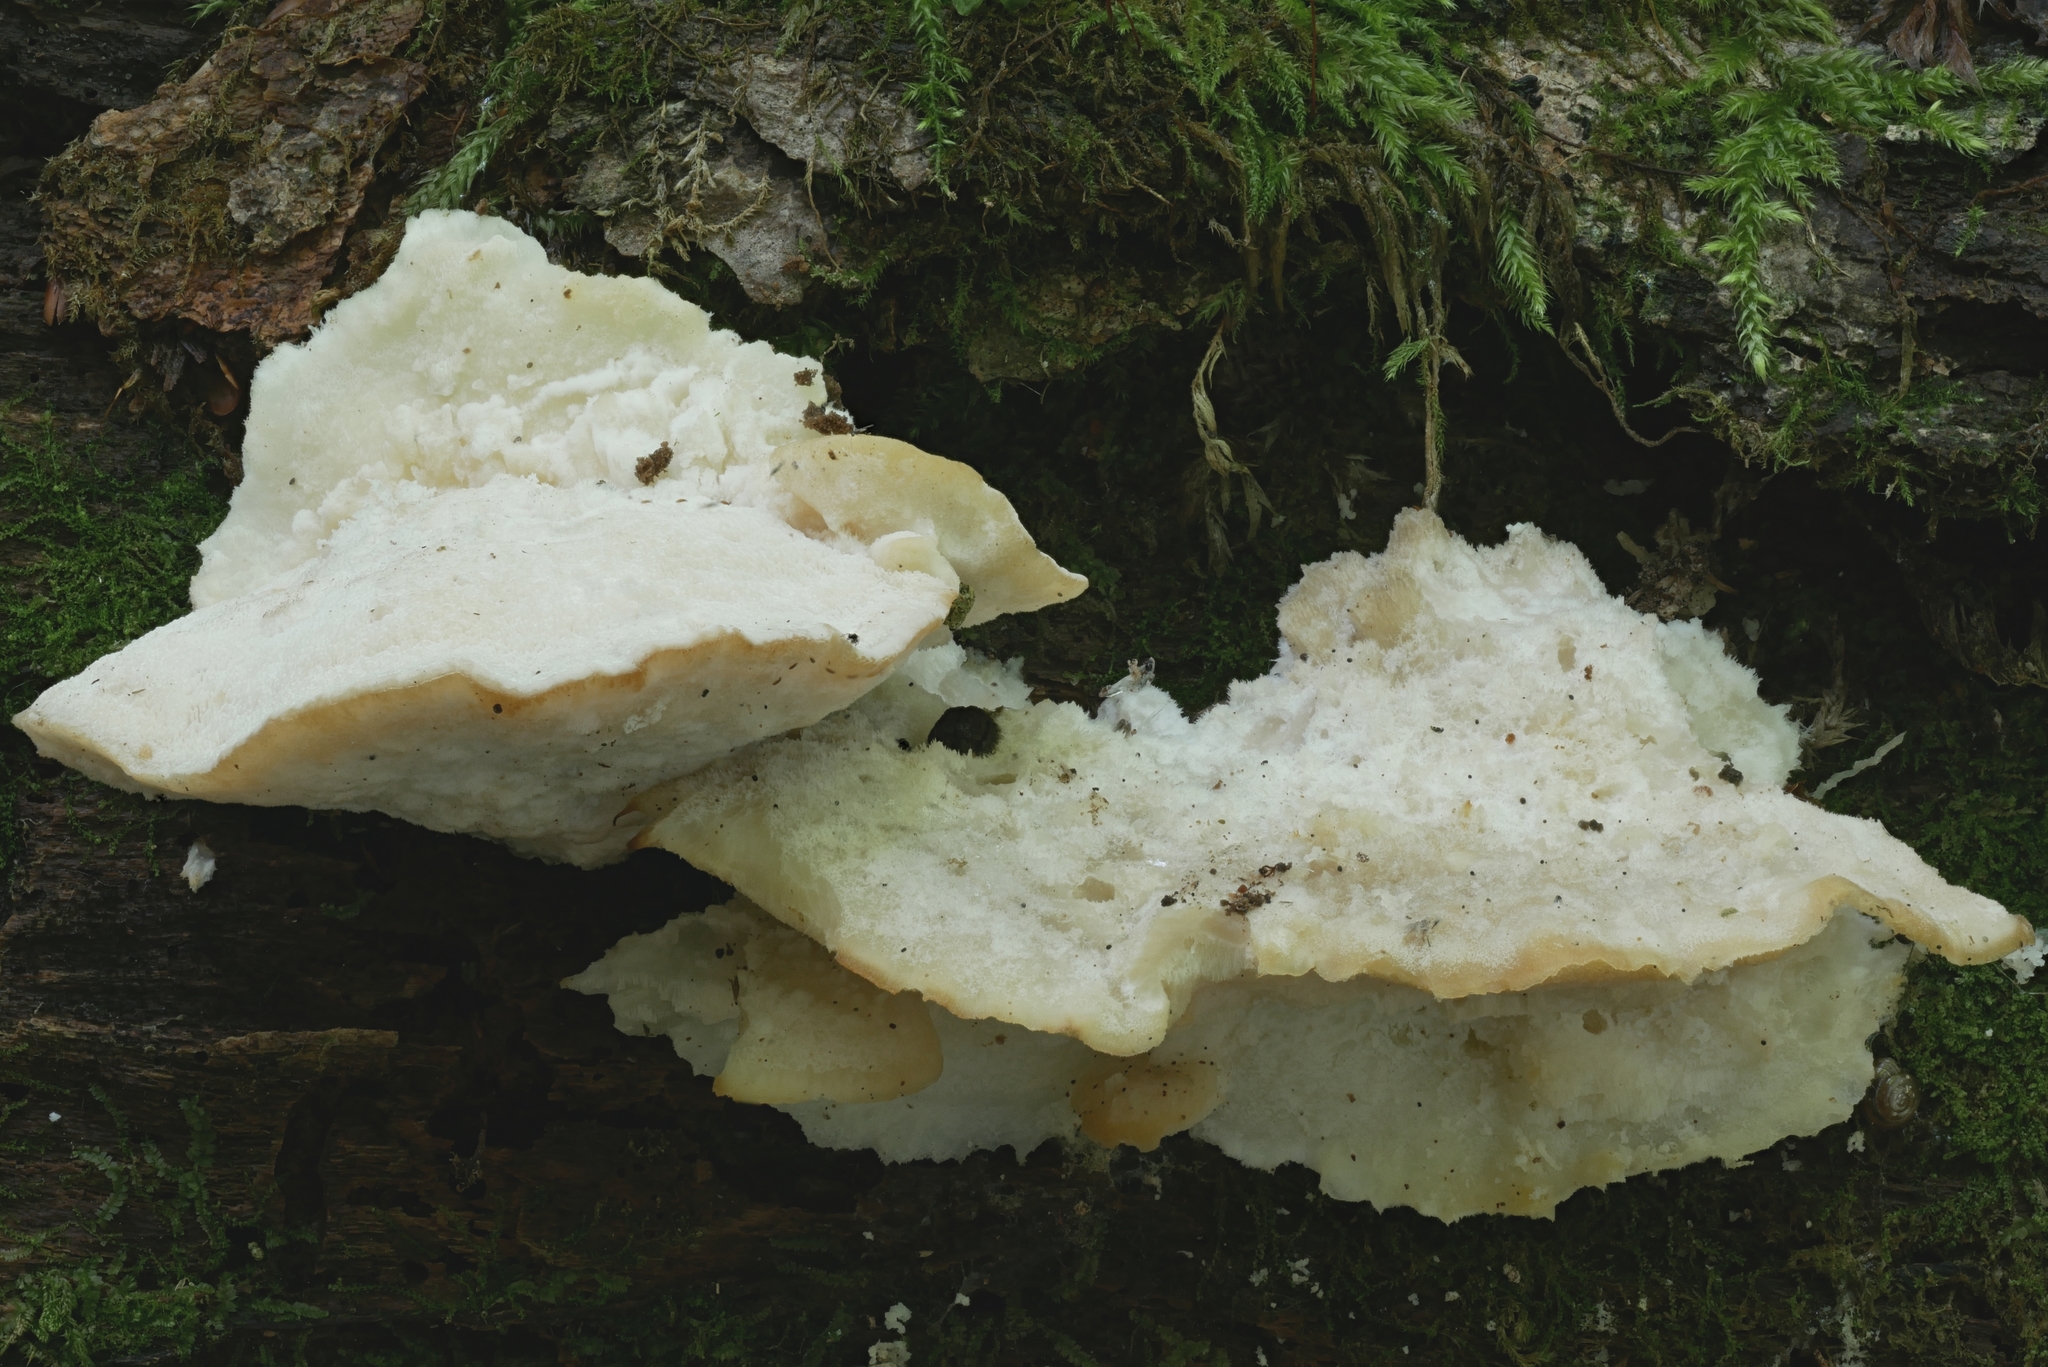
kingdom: Fungi
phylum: Basidiomycota
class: Agaricomycetes
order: Polyporales
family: Incrustoporiaceae
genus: Tyromyces
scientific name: Tyromyces galactinus
